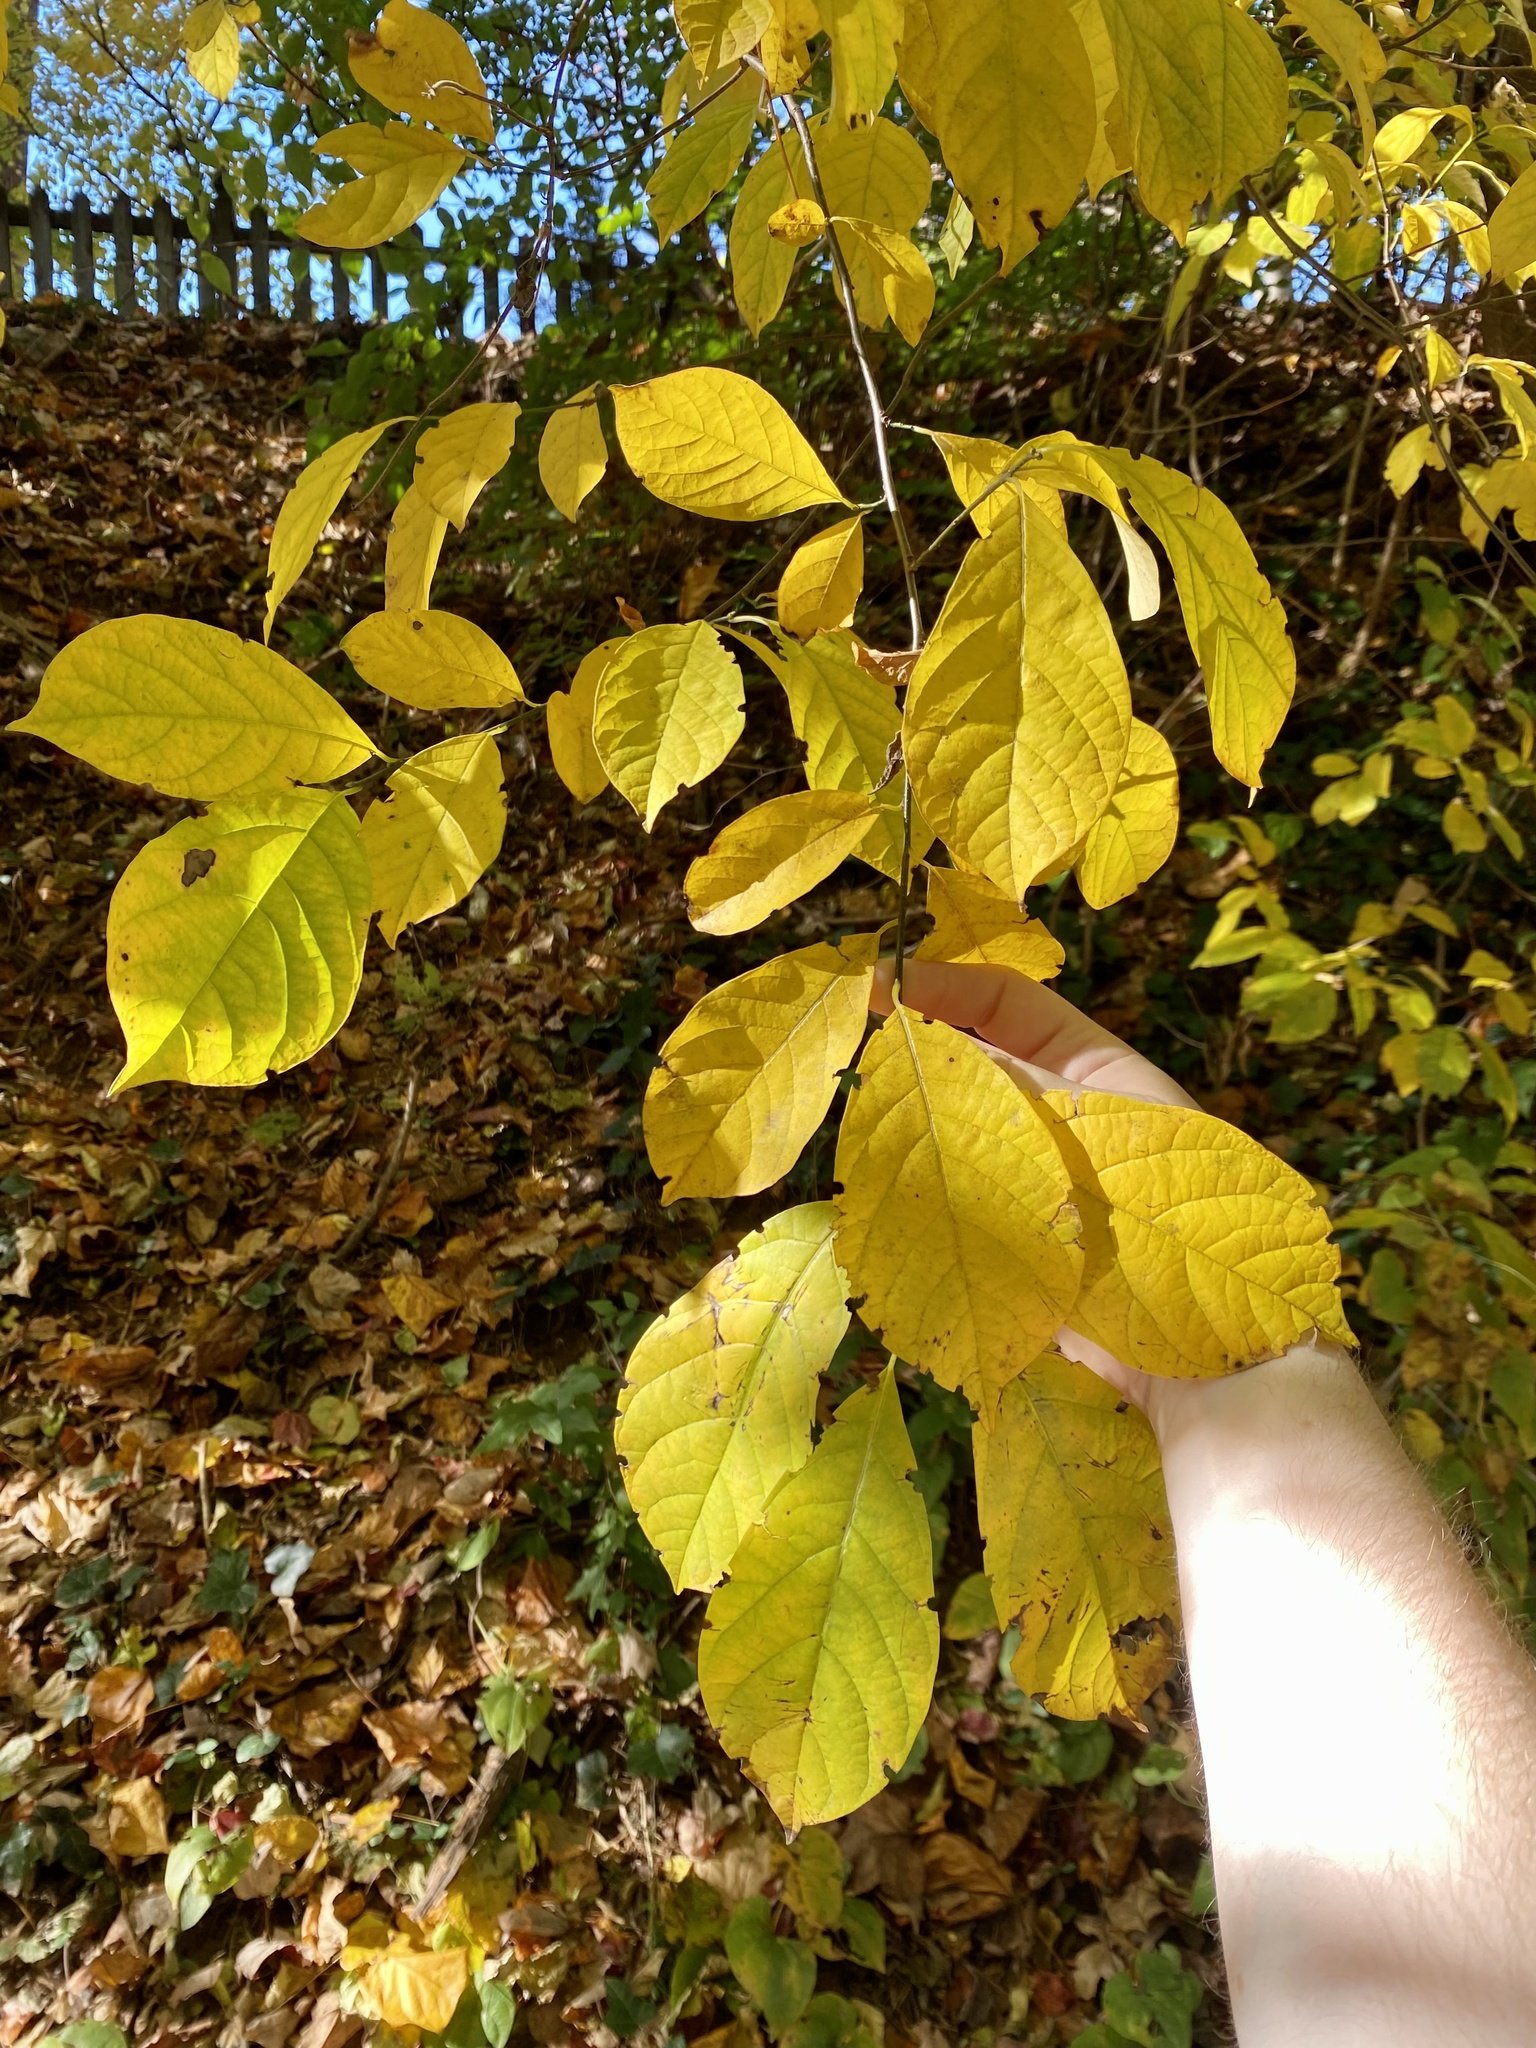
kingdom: Plantae
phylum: Tracheophyta
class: Magnoliopsida
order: Laurales
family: Lauraceae
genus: Lindera
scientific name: Lindera benzoin
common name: Spicebush
